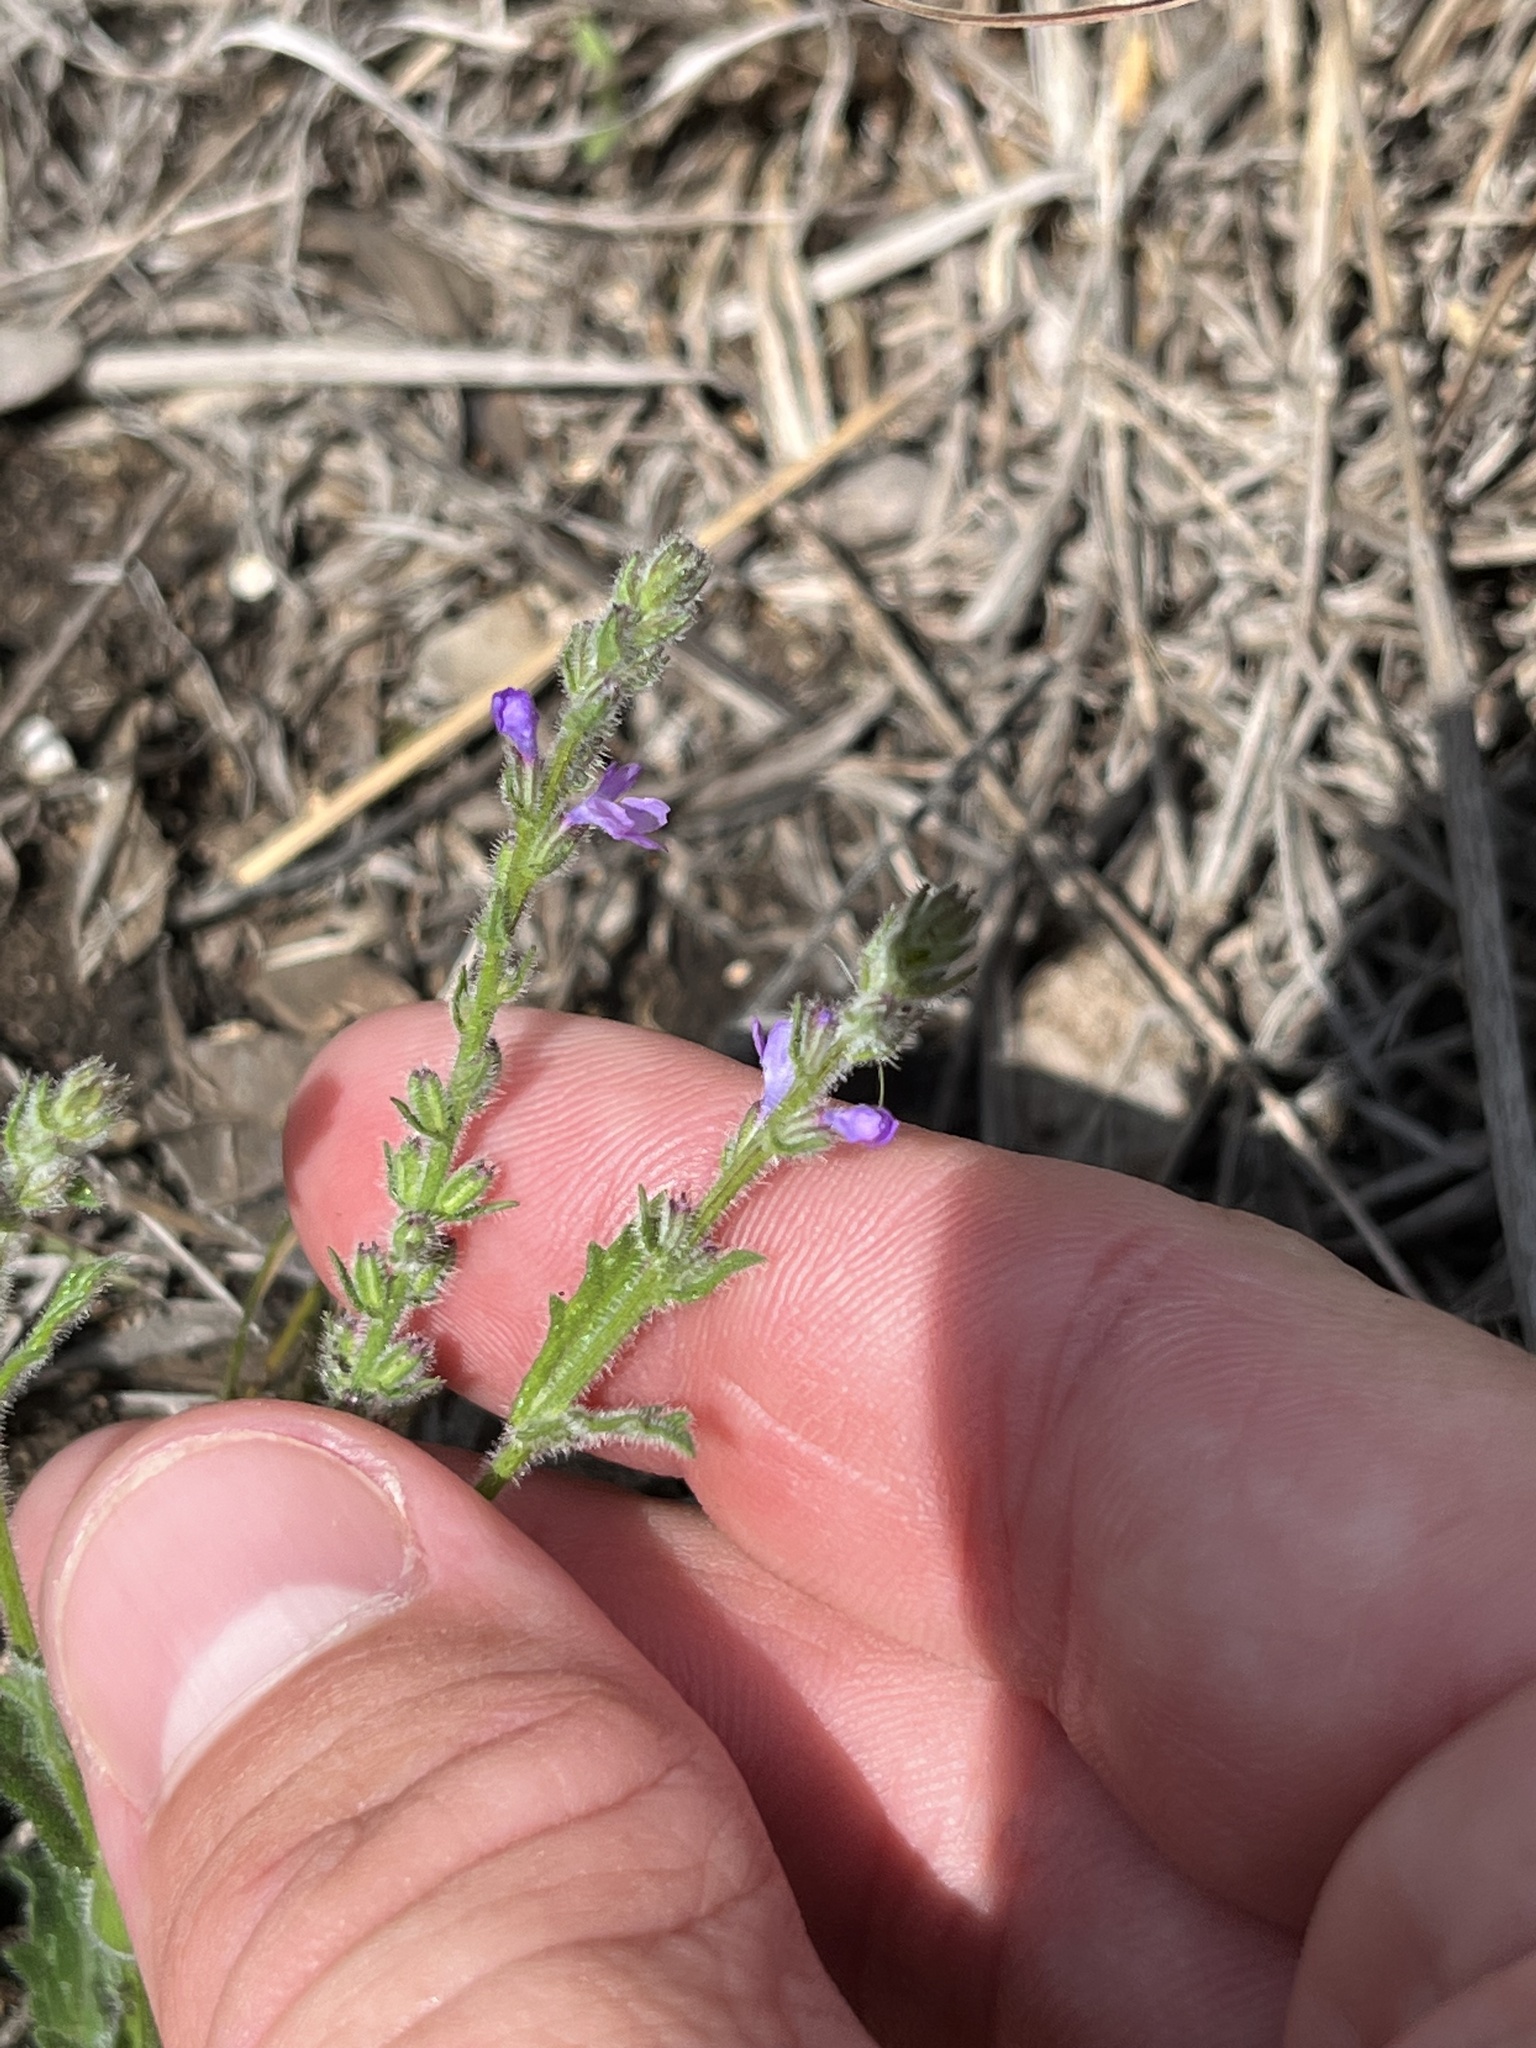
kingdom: Plantae
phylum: Tracheophyta
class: Magnoliopsida
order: Lamiales
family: Verbenaceae
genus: Verbena
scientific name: Verbena canescens
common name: Gray vervain
